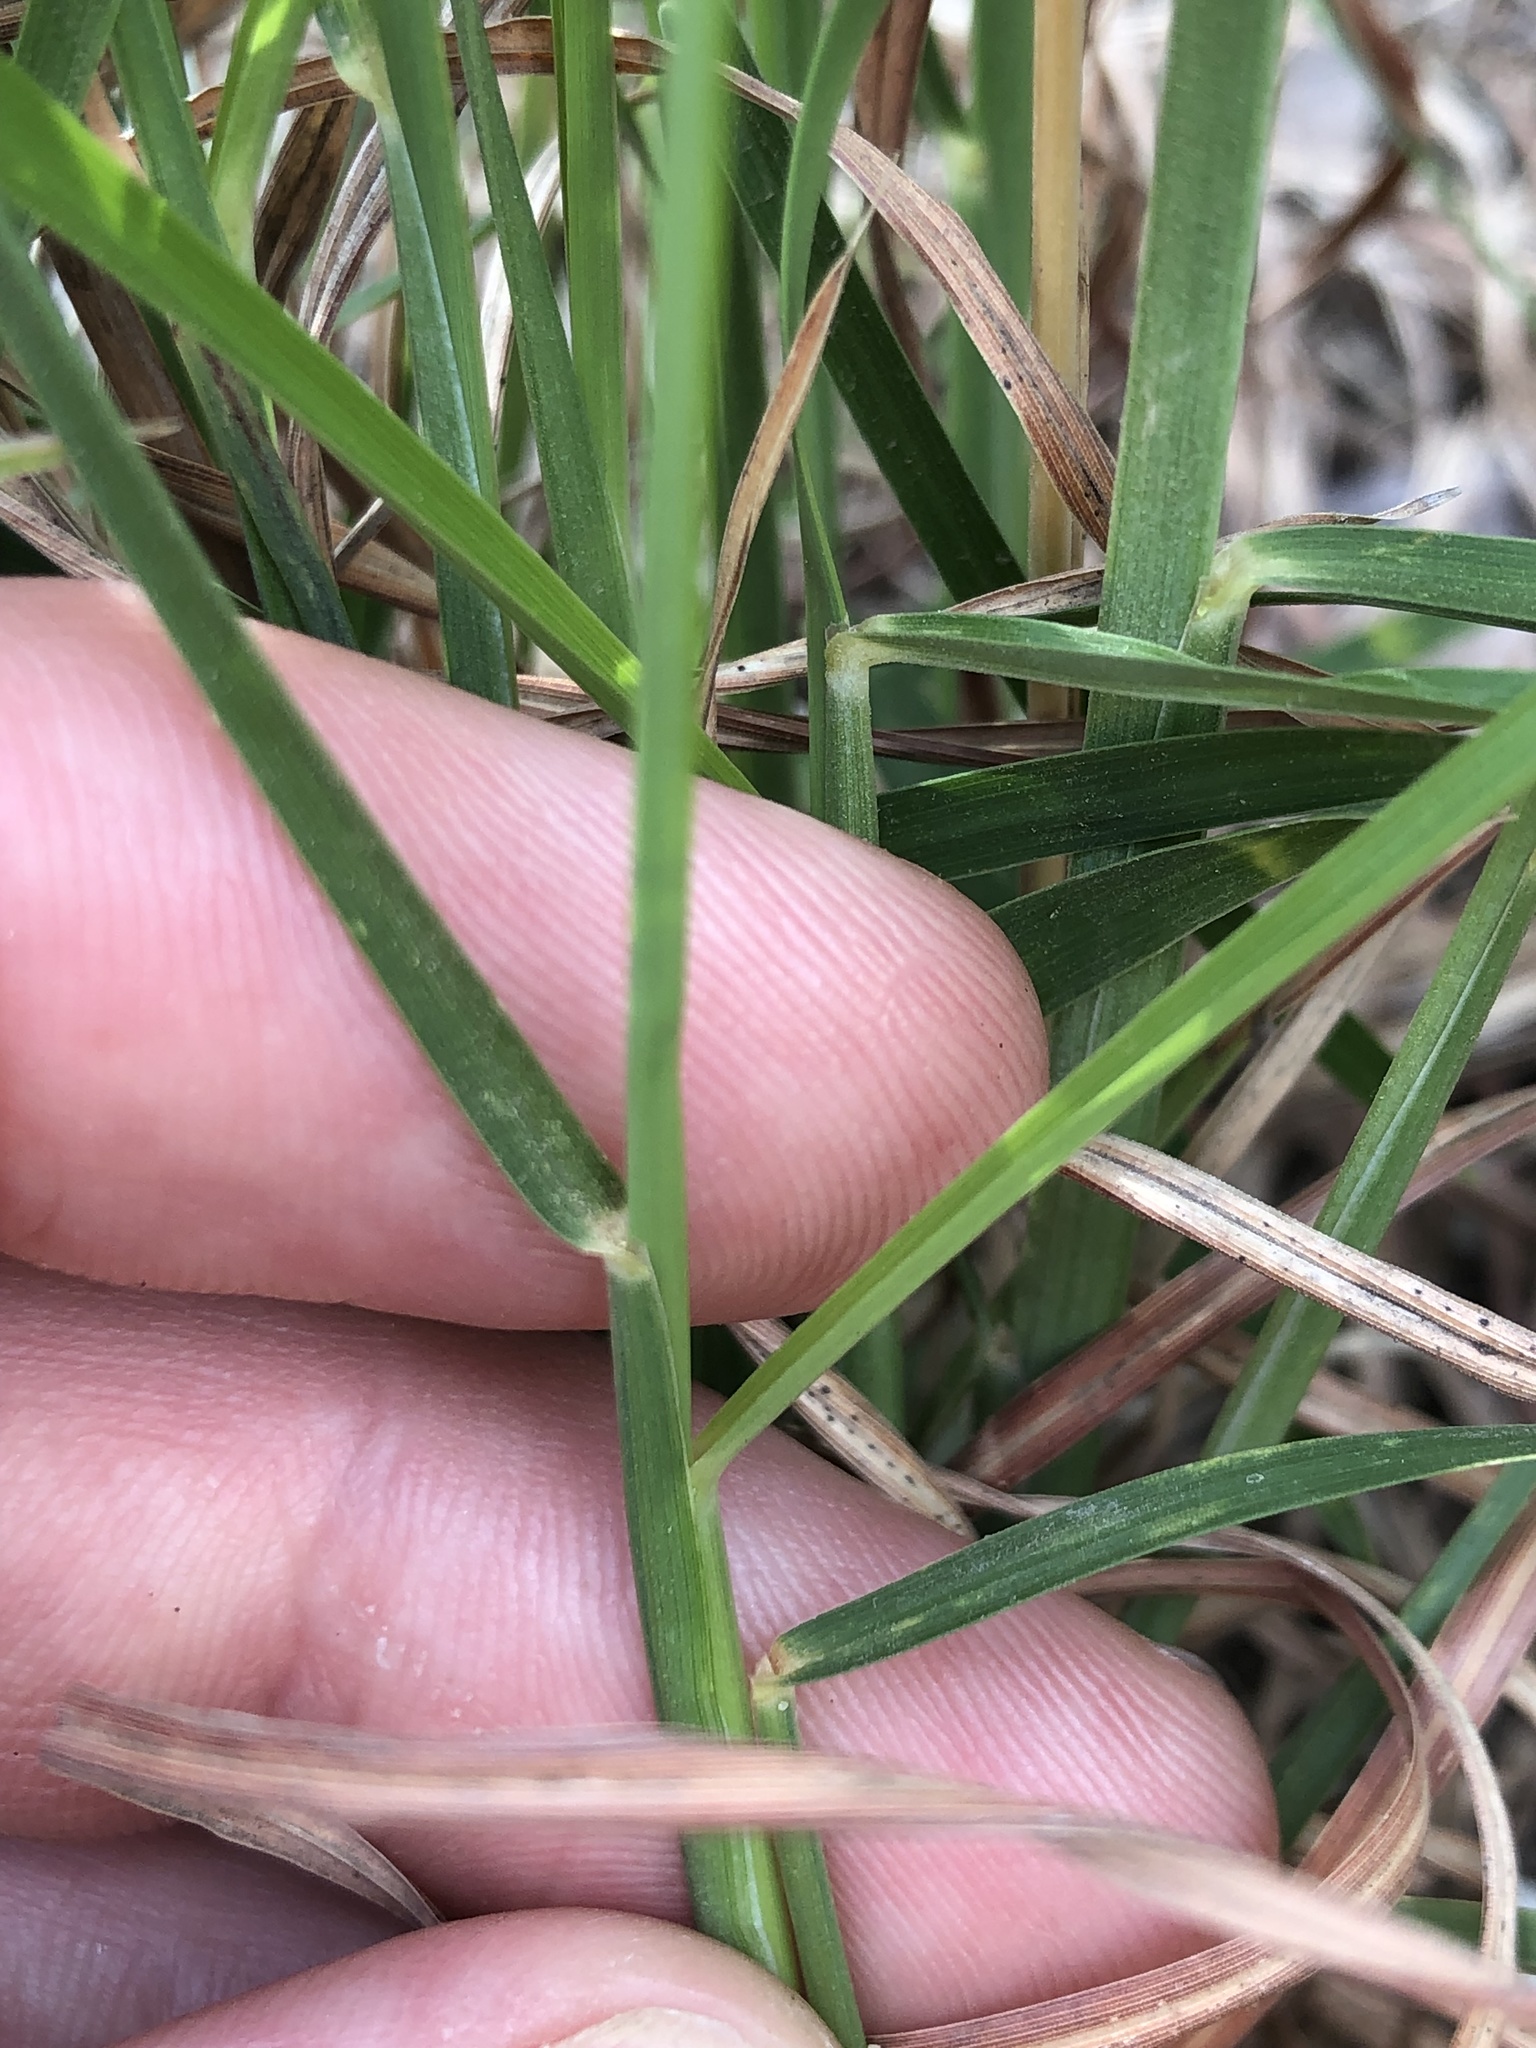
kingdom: Plantae
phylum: Tracheophyta
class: Liliopsida
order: Poales
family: Poaceae
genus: Schizachyrium
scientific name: Schizachyrium scoparium
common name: Little bluestem
